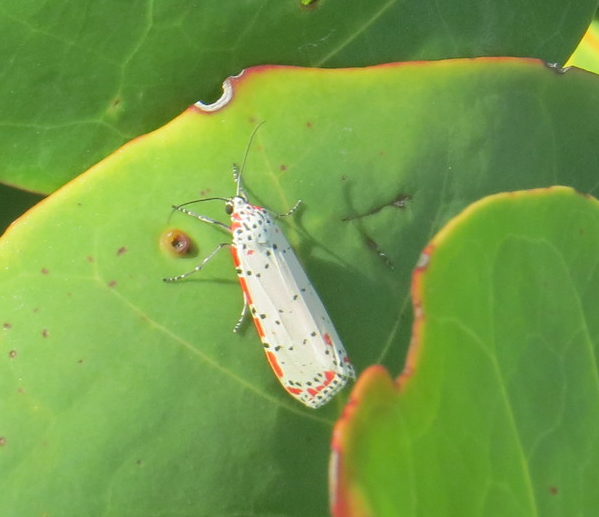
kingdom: Animalia
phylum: Arthropoda
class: Insecta
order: Lepidoptera
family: Erebidae
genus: Utetheisa
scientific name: Utetheisa ornatrix
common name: Beautiful utetheisa
